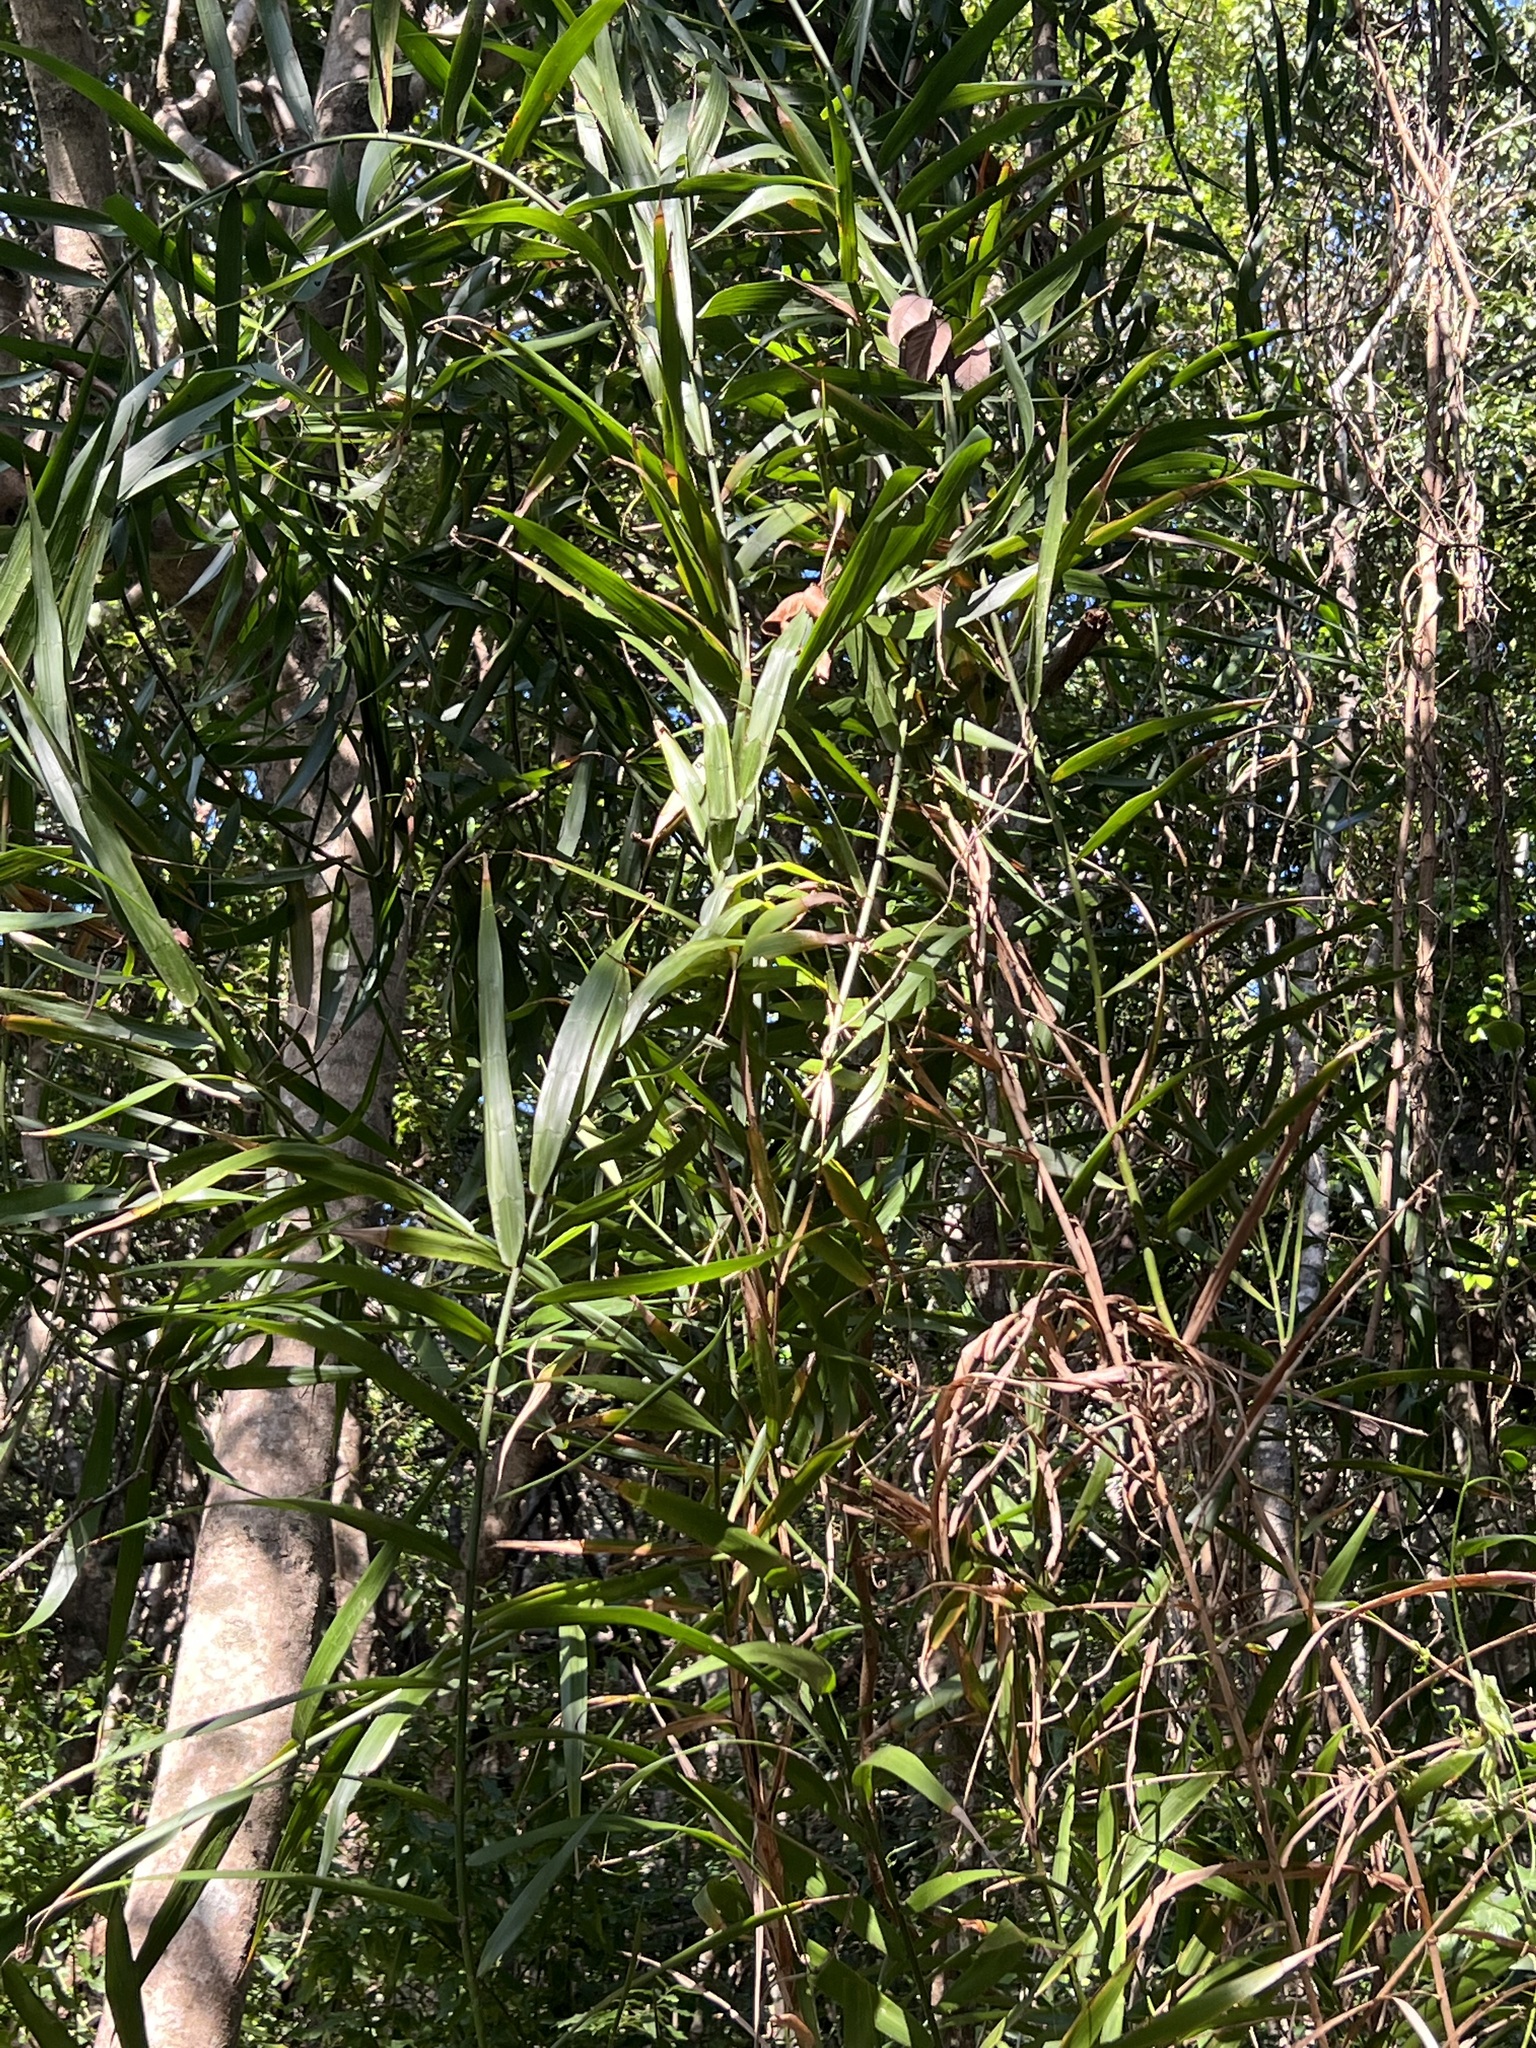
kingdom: Plantae
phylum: Tracheophyta
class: Liliopsida
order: Poales
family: Flagellariaceae
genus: Flagellaria
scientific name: Flagellaria indica
